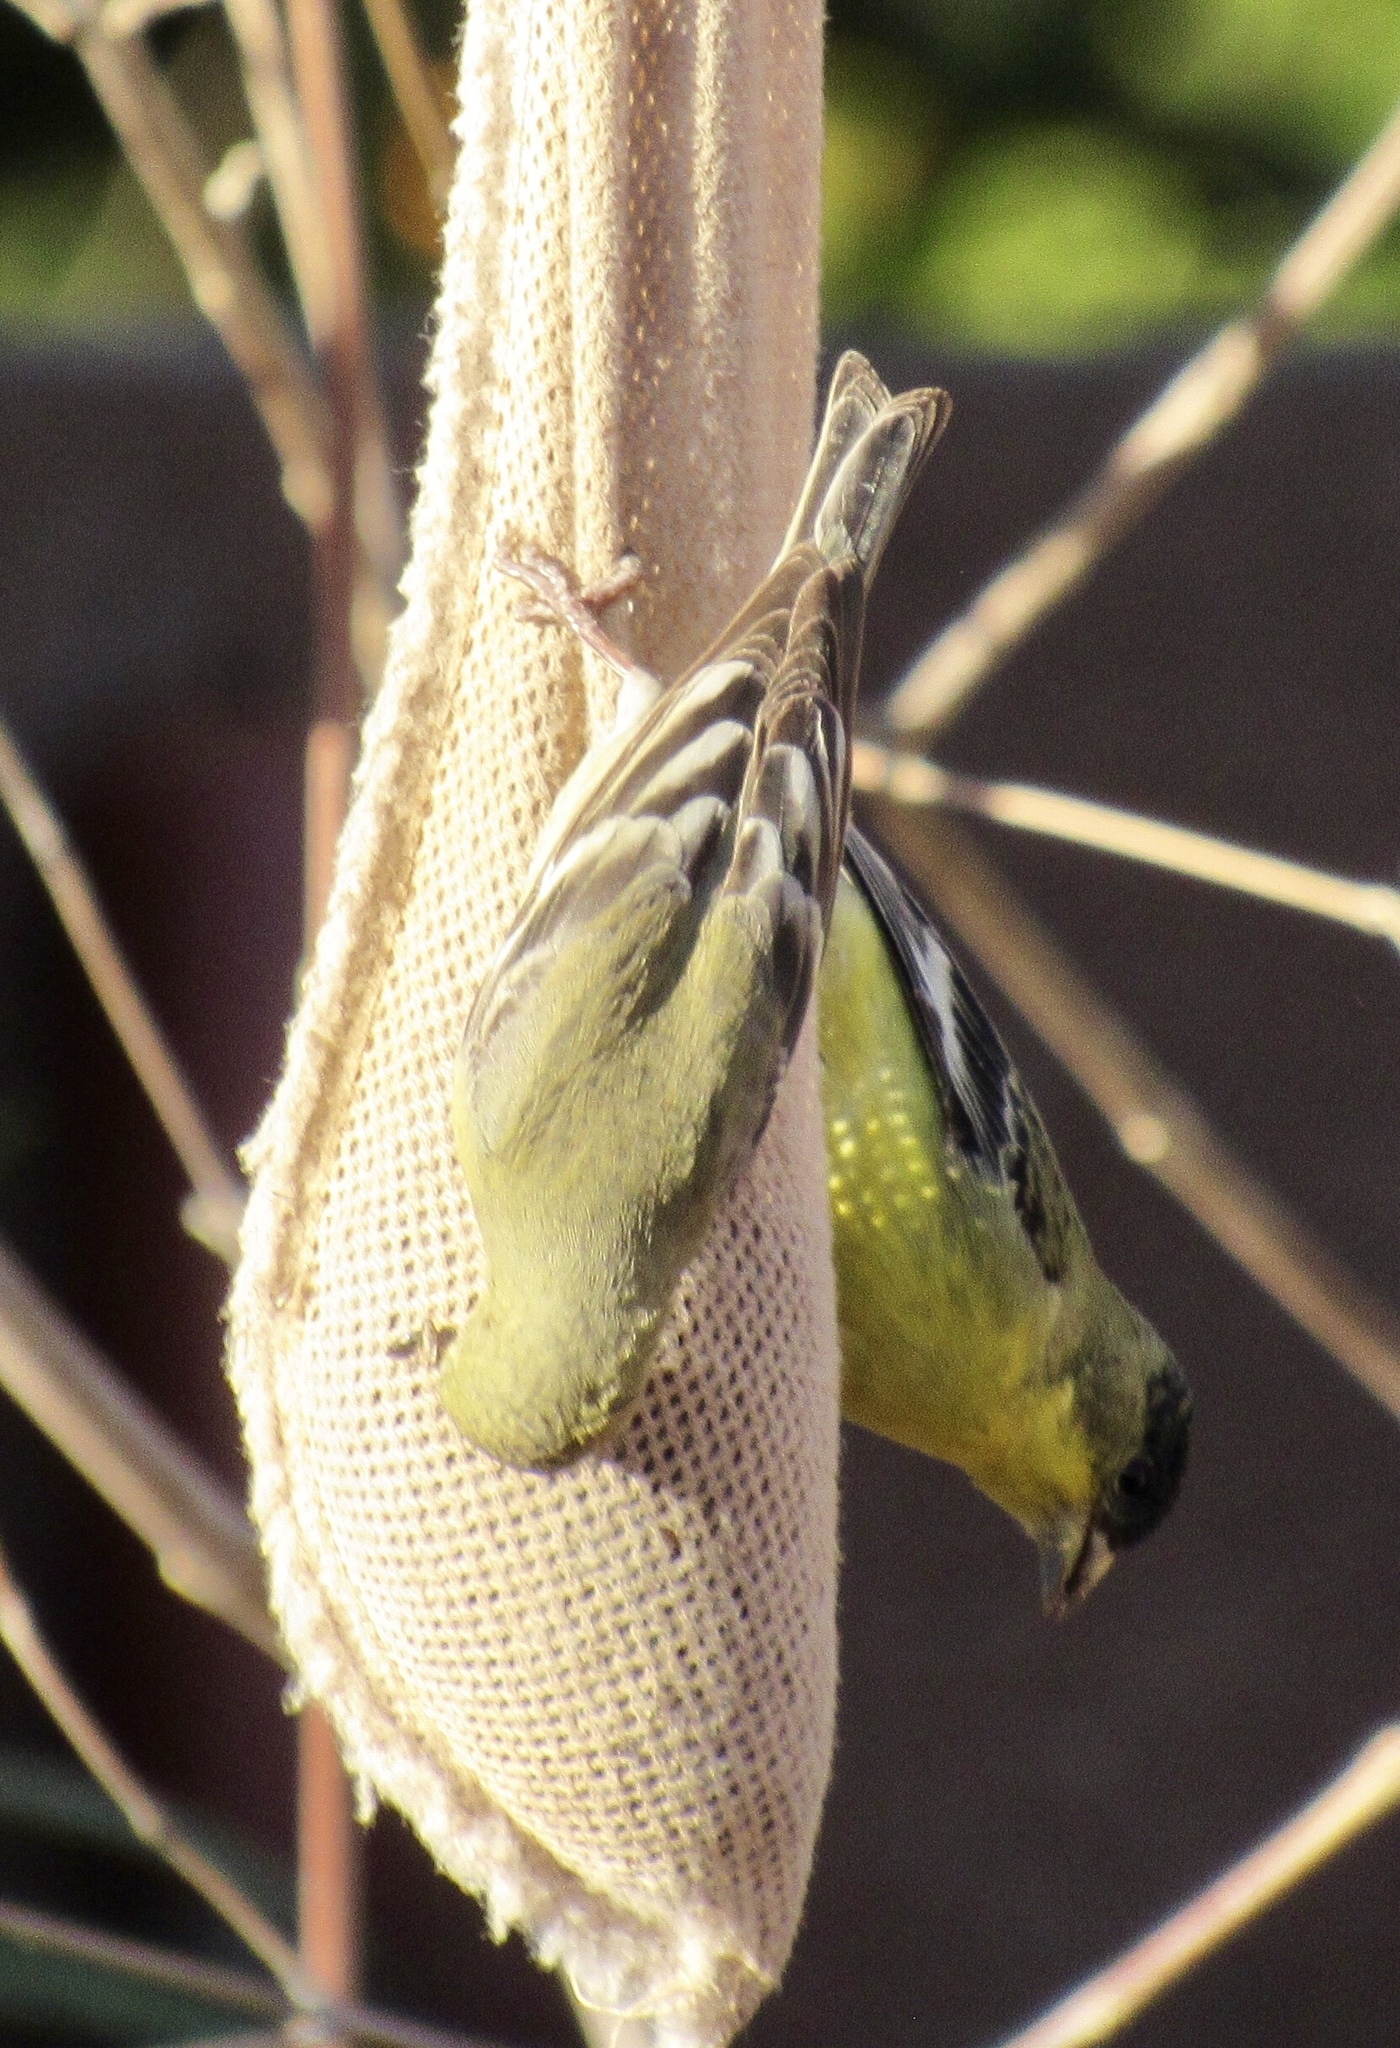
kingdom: Animalia
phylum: Chordata
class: Aves
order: Passeriformes
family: Fringillidae
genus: Spinus
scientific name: Spinus psaltria
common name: Lesser goldfinch
